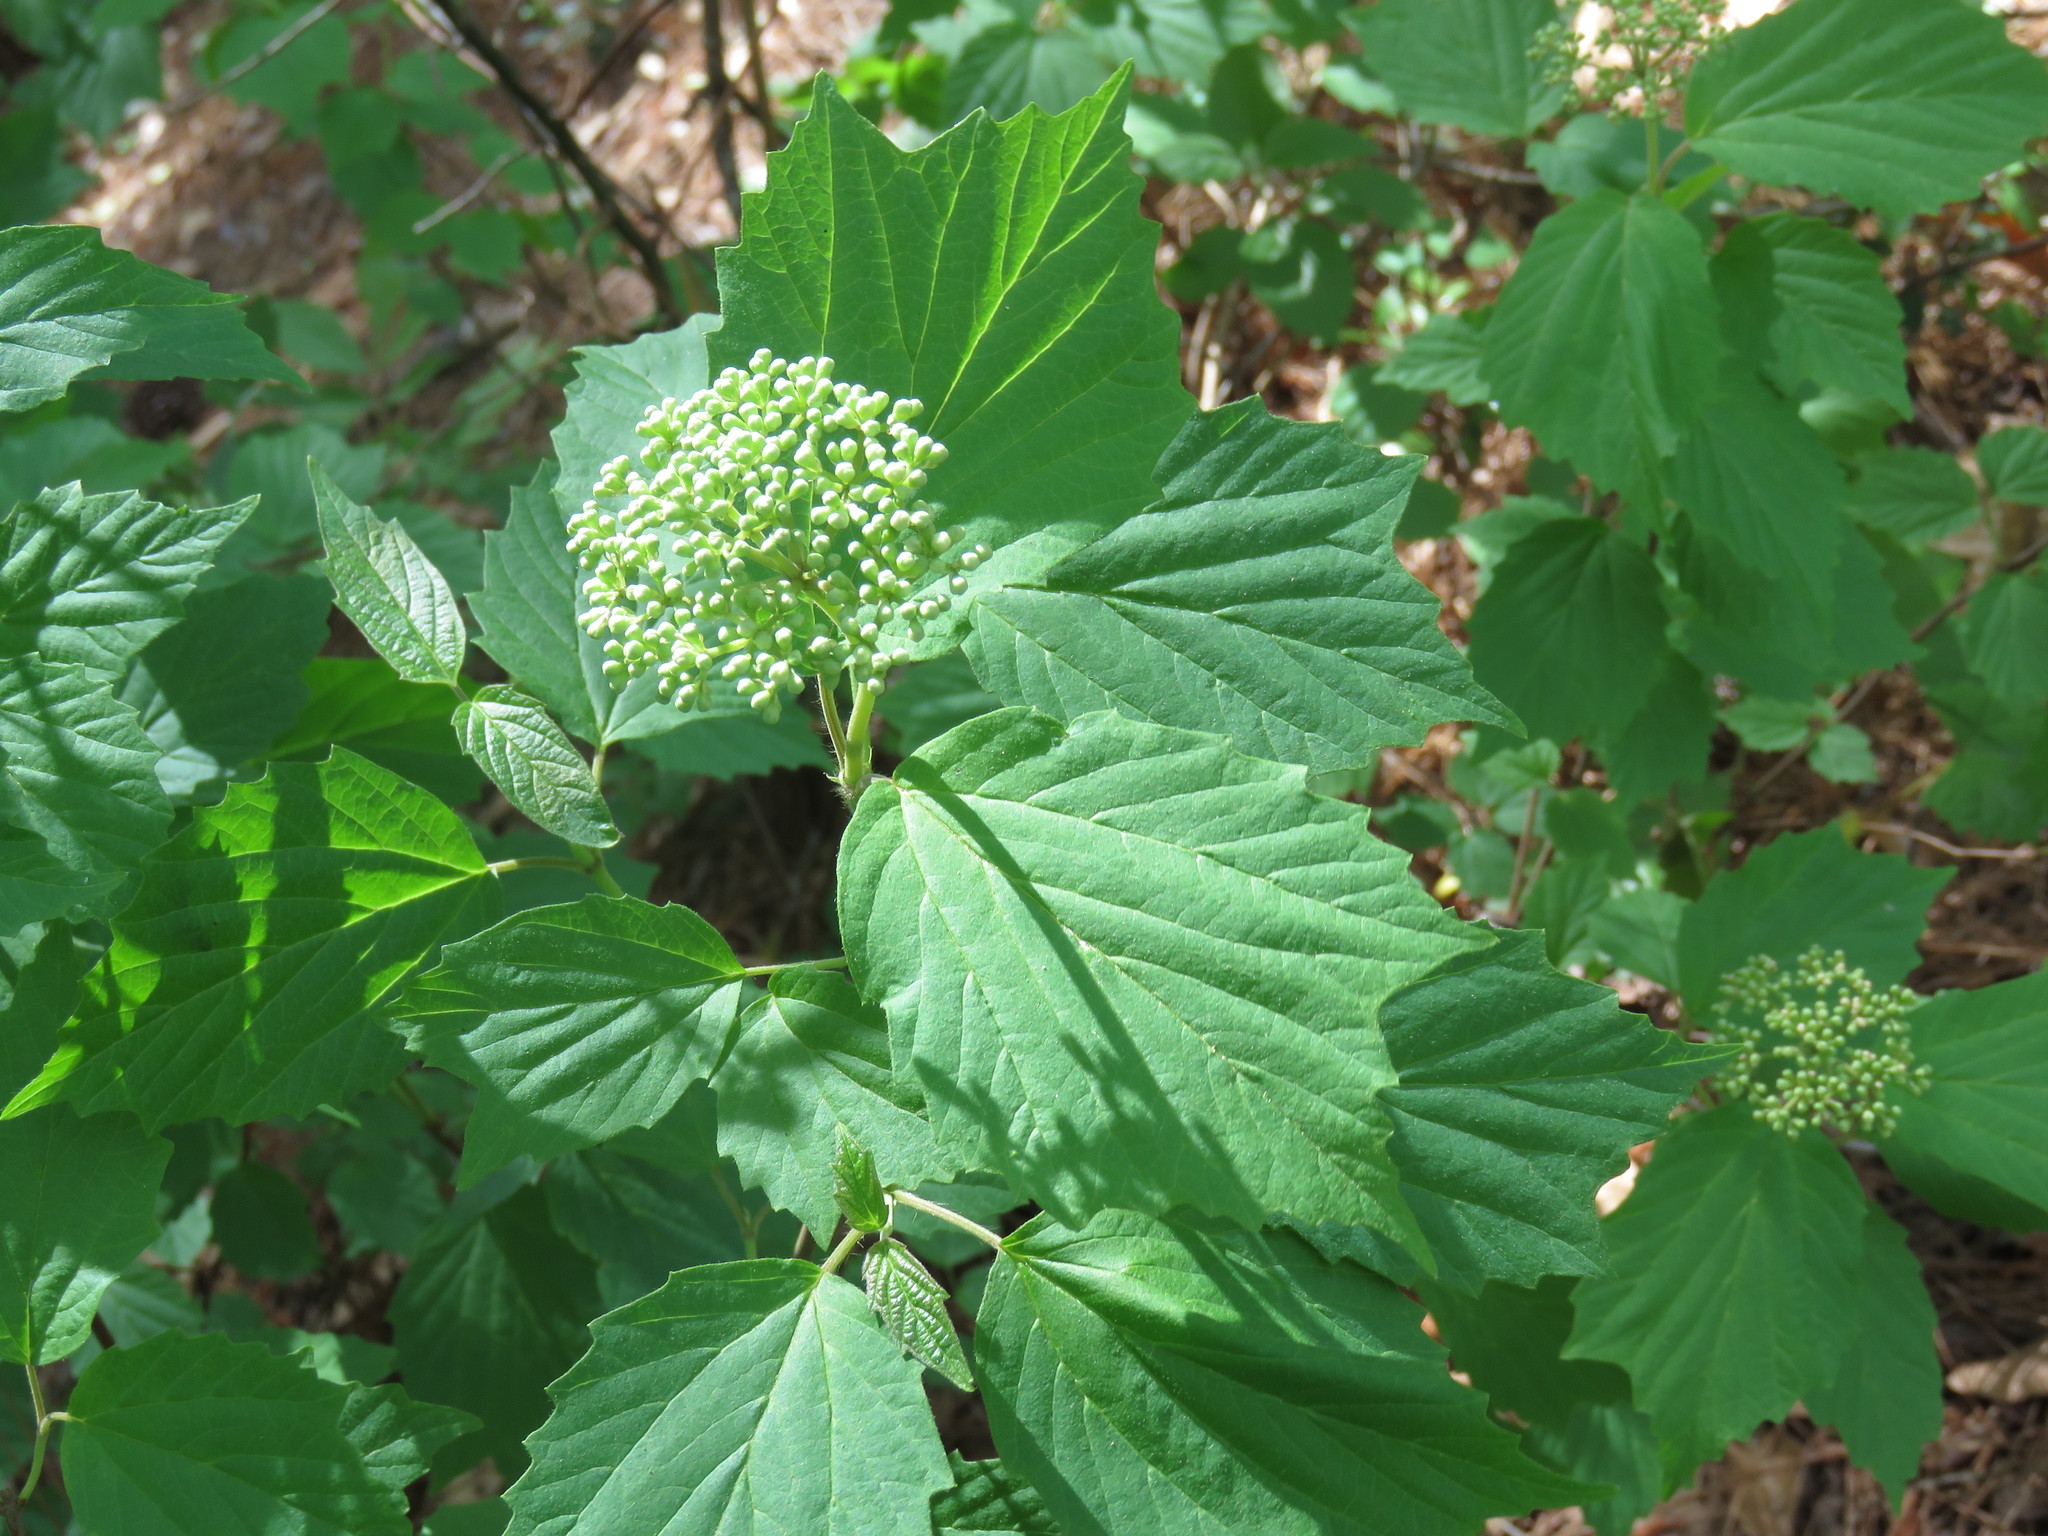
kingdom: Plantae
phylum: Tracheophyta
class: Magnoliopsida
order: Dipsacales
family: Viburnaceae
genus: Viburnum
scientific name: Viburnum acerifolium
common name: Dockmackie
